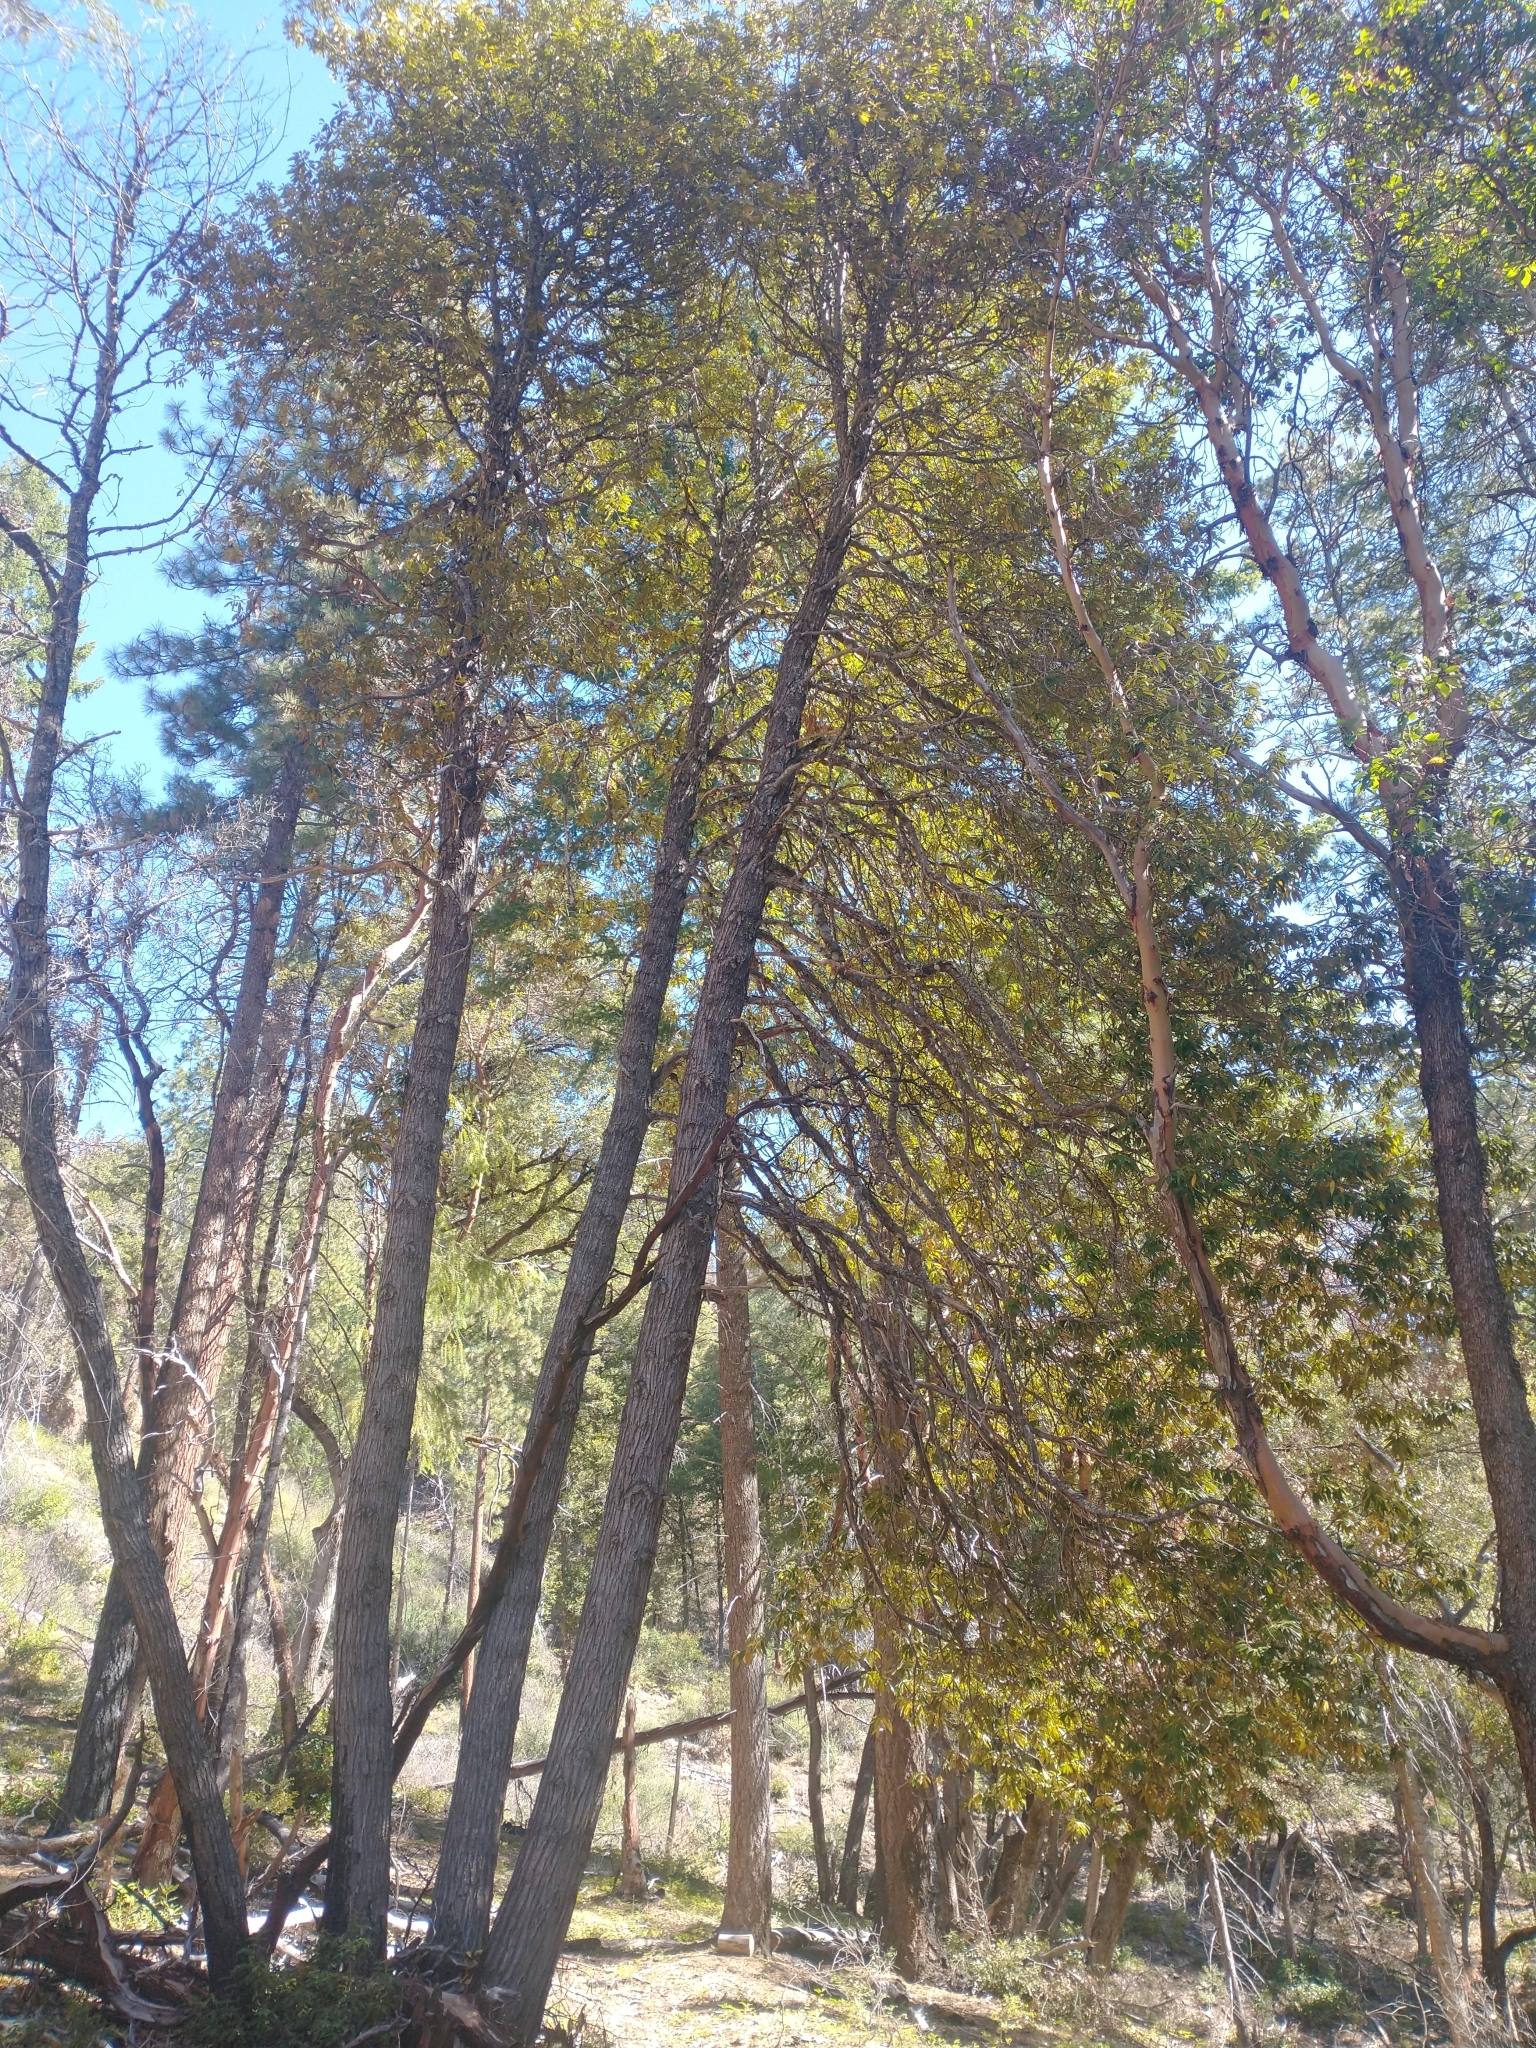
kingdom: Plantae
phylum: Tracheophyta
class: Magnoliopsida
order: Fagales
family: Fagaceae
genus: Chrysolepis
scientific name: Chrysolepis chrysophylla
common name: Giant chinquapin
